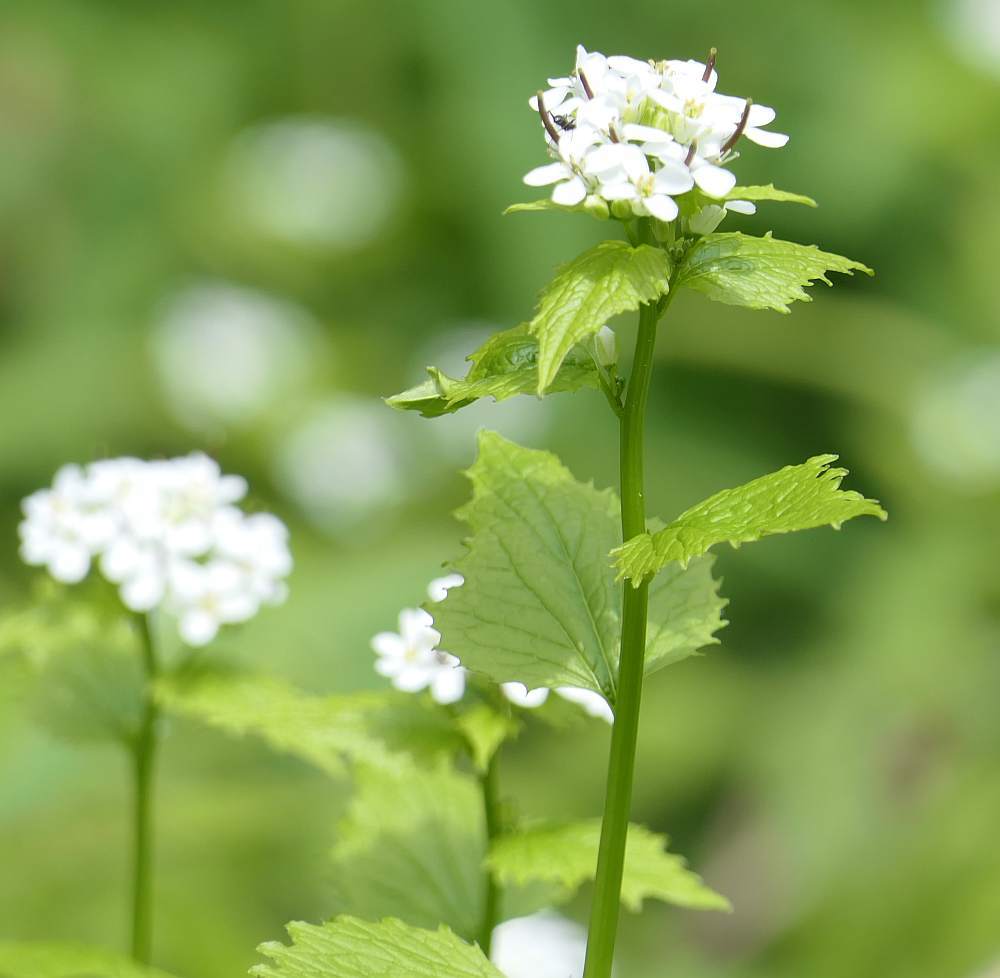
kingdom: Plantae
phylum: Tracheophyta
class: Magnoliopsida
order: Brassicales
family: Brassicaceae
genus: Alliaria
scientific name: Alliaria petiolata
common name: Garlic mustard
